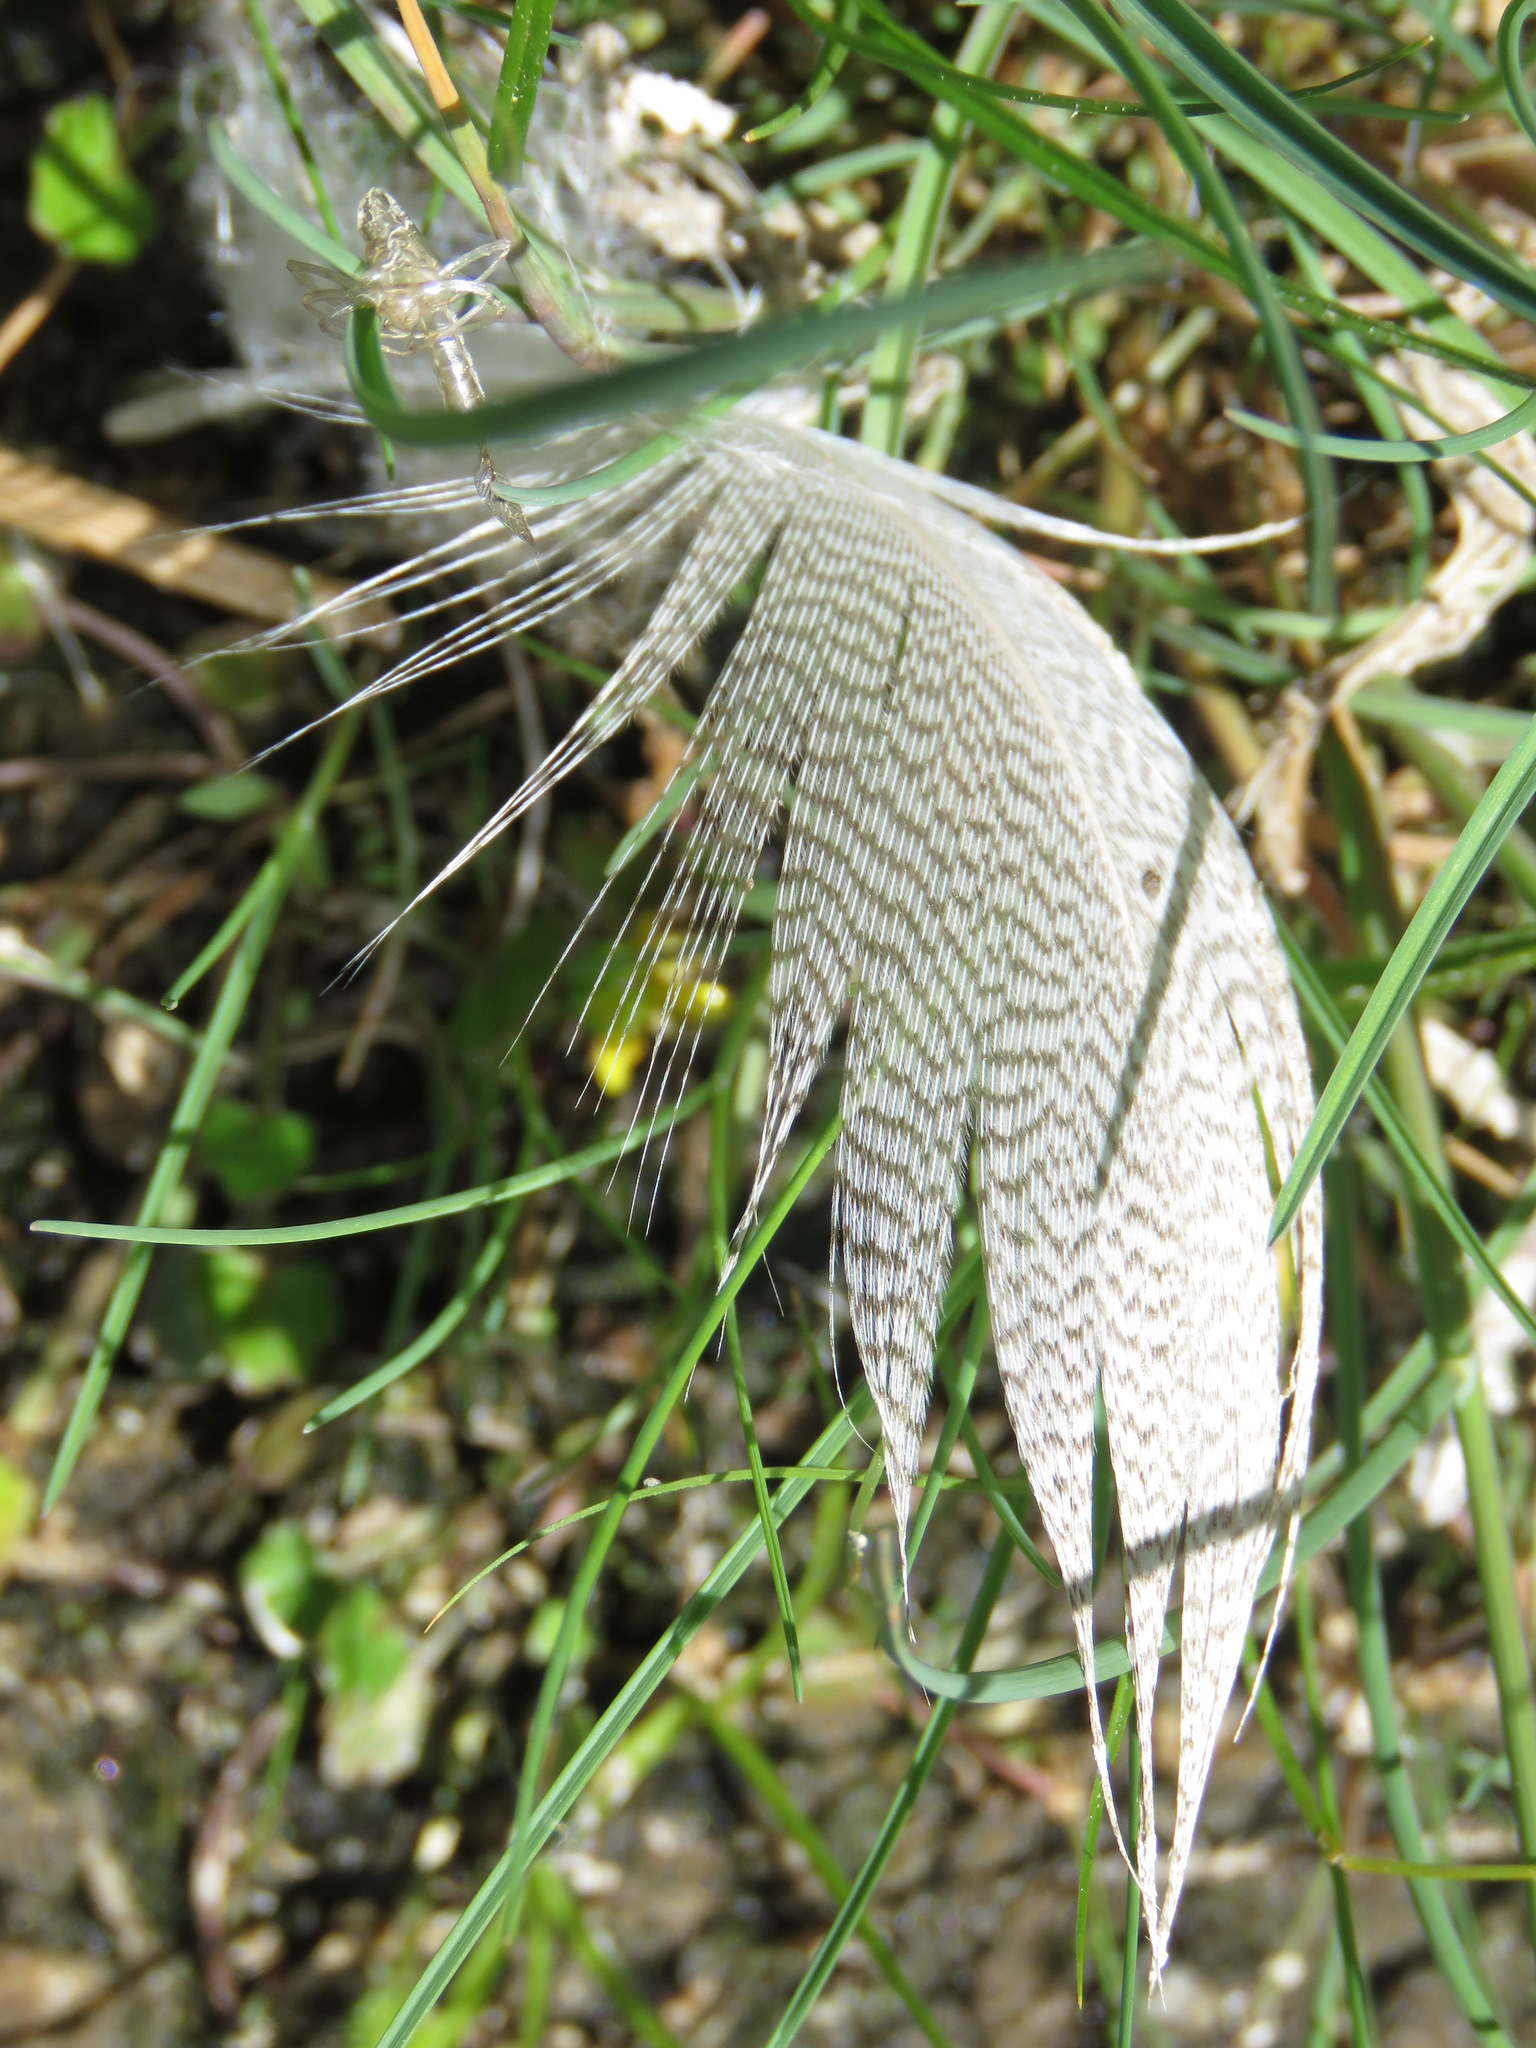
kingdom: Animalia
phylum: Chordata
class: Aves
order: Anseriformes
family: Anatidae
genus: Anas
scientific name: Anas platyrhynchos
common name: Mallard
